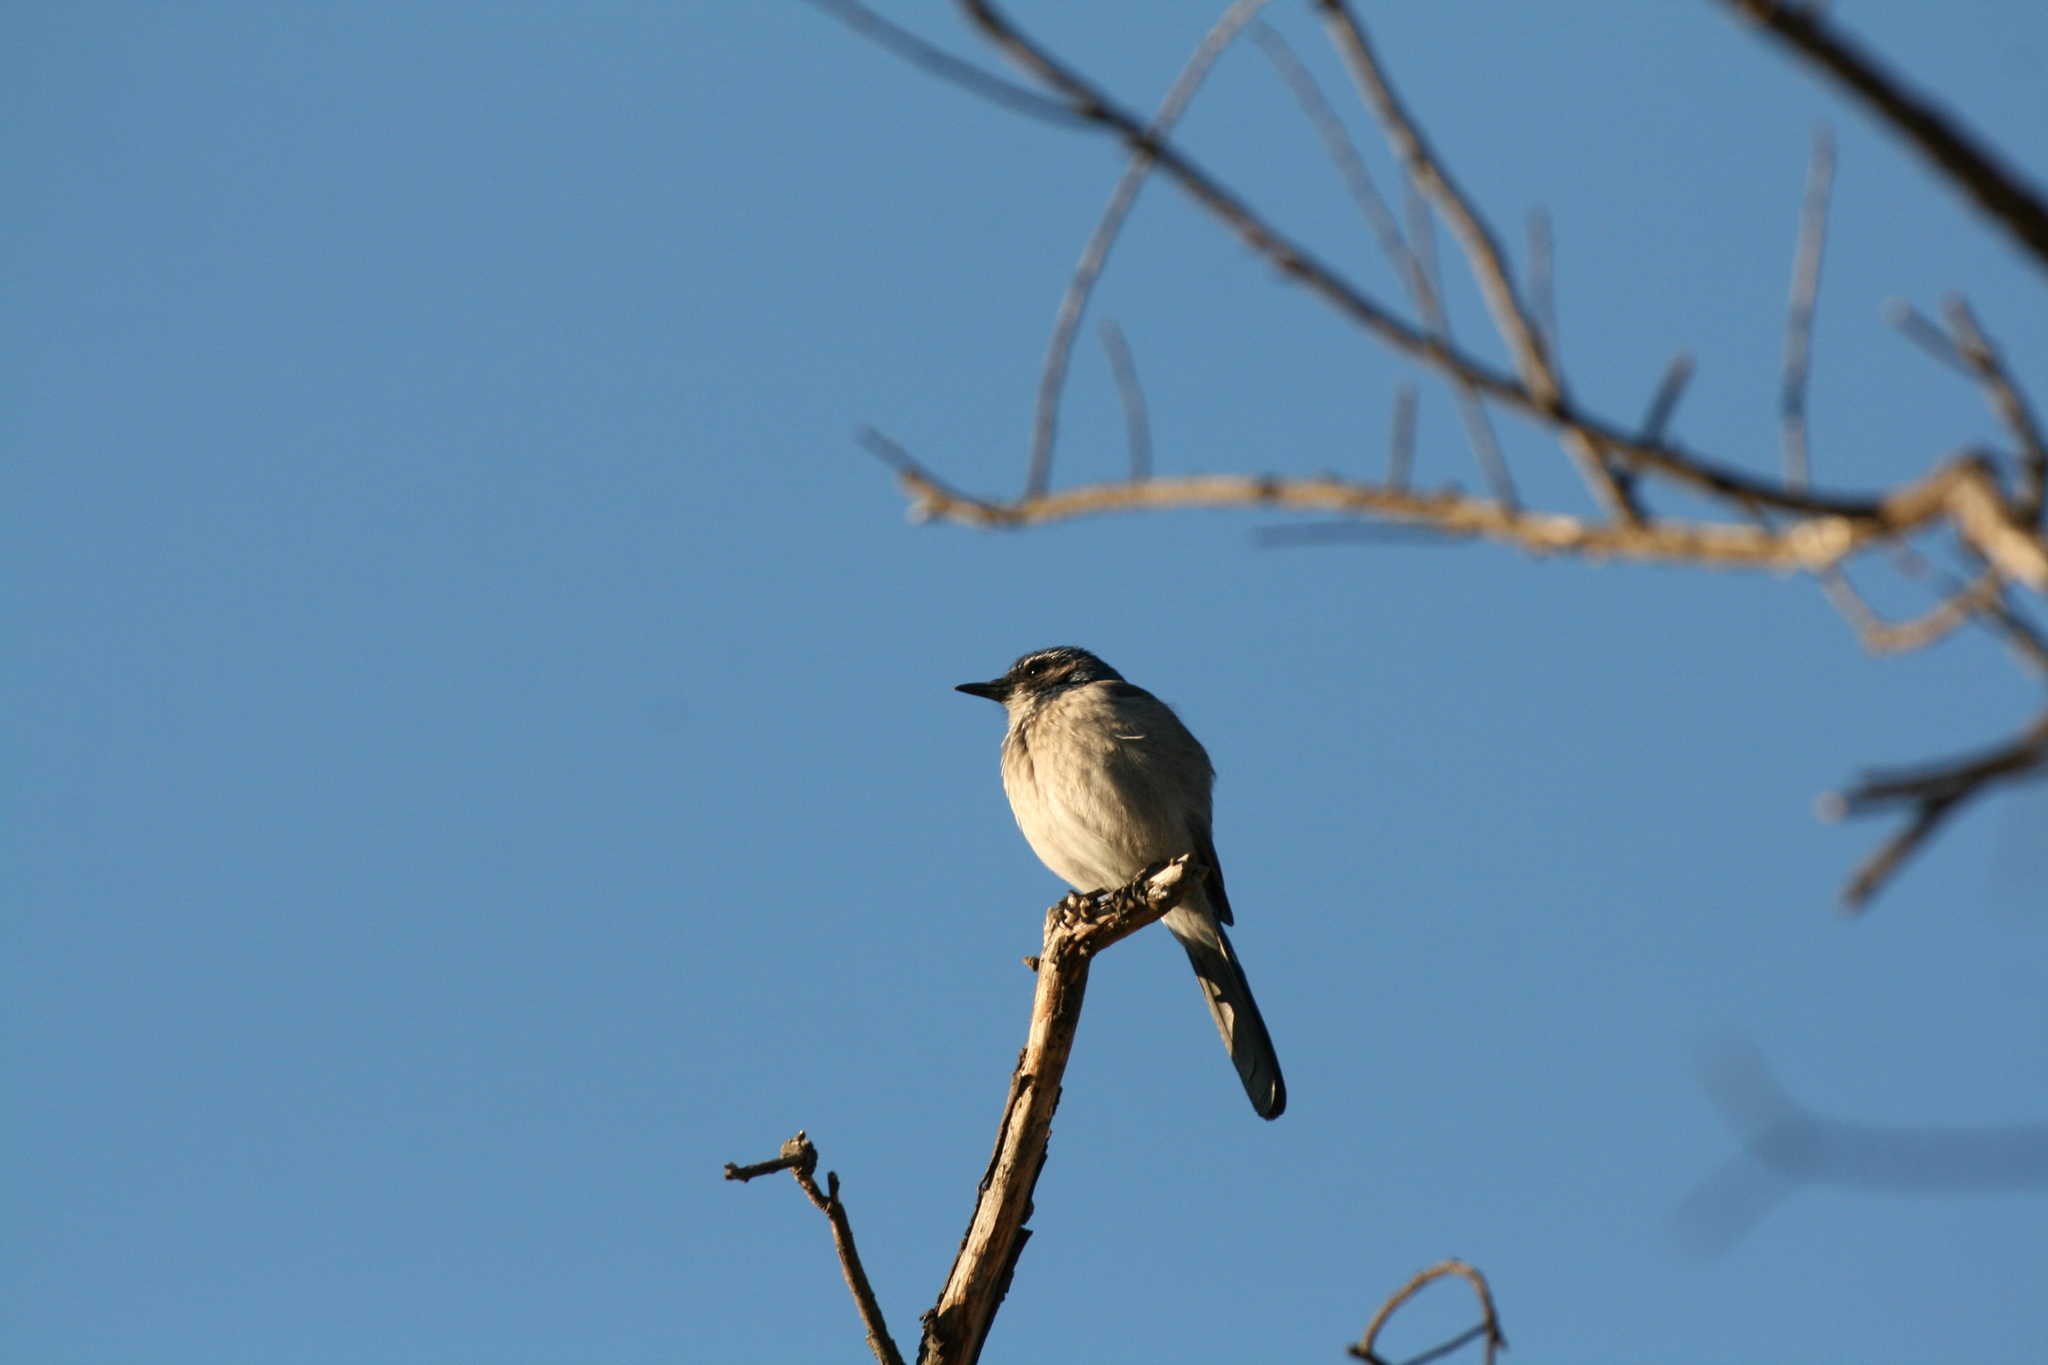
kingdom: Animalia
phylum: Chordata
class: Aves
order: Passeriformes
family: Corvidae
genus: Aphelocoma
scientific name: Aphelocoma californica
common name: California scrub-jay
